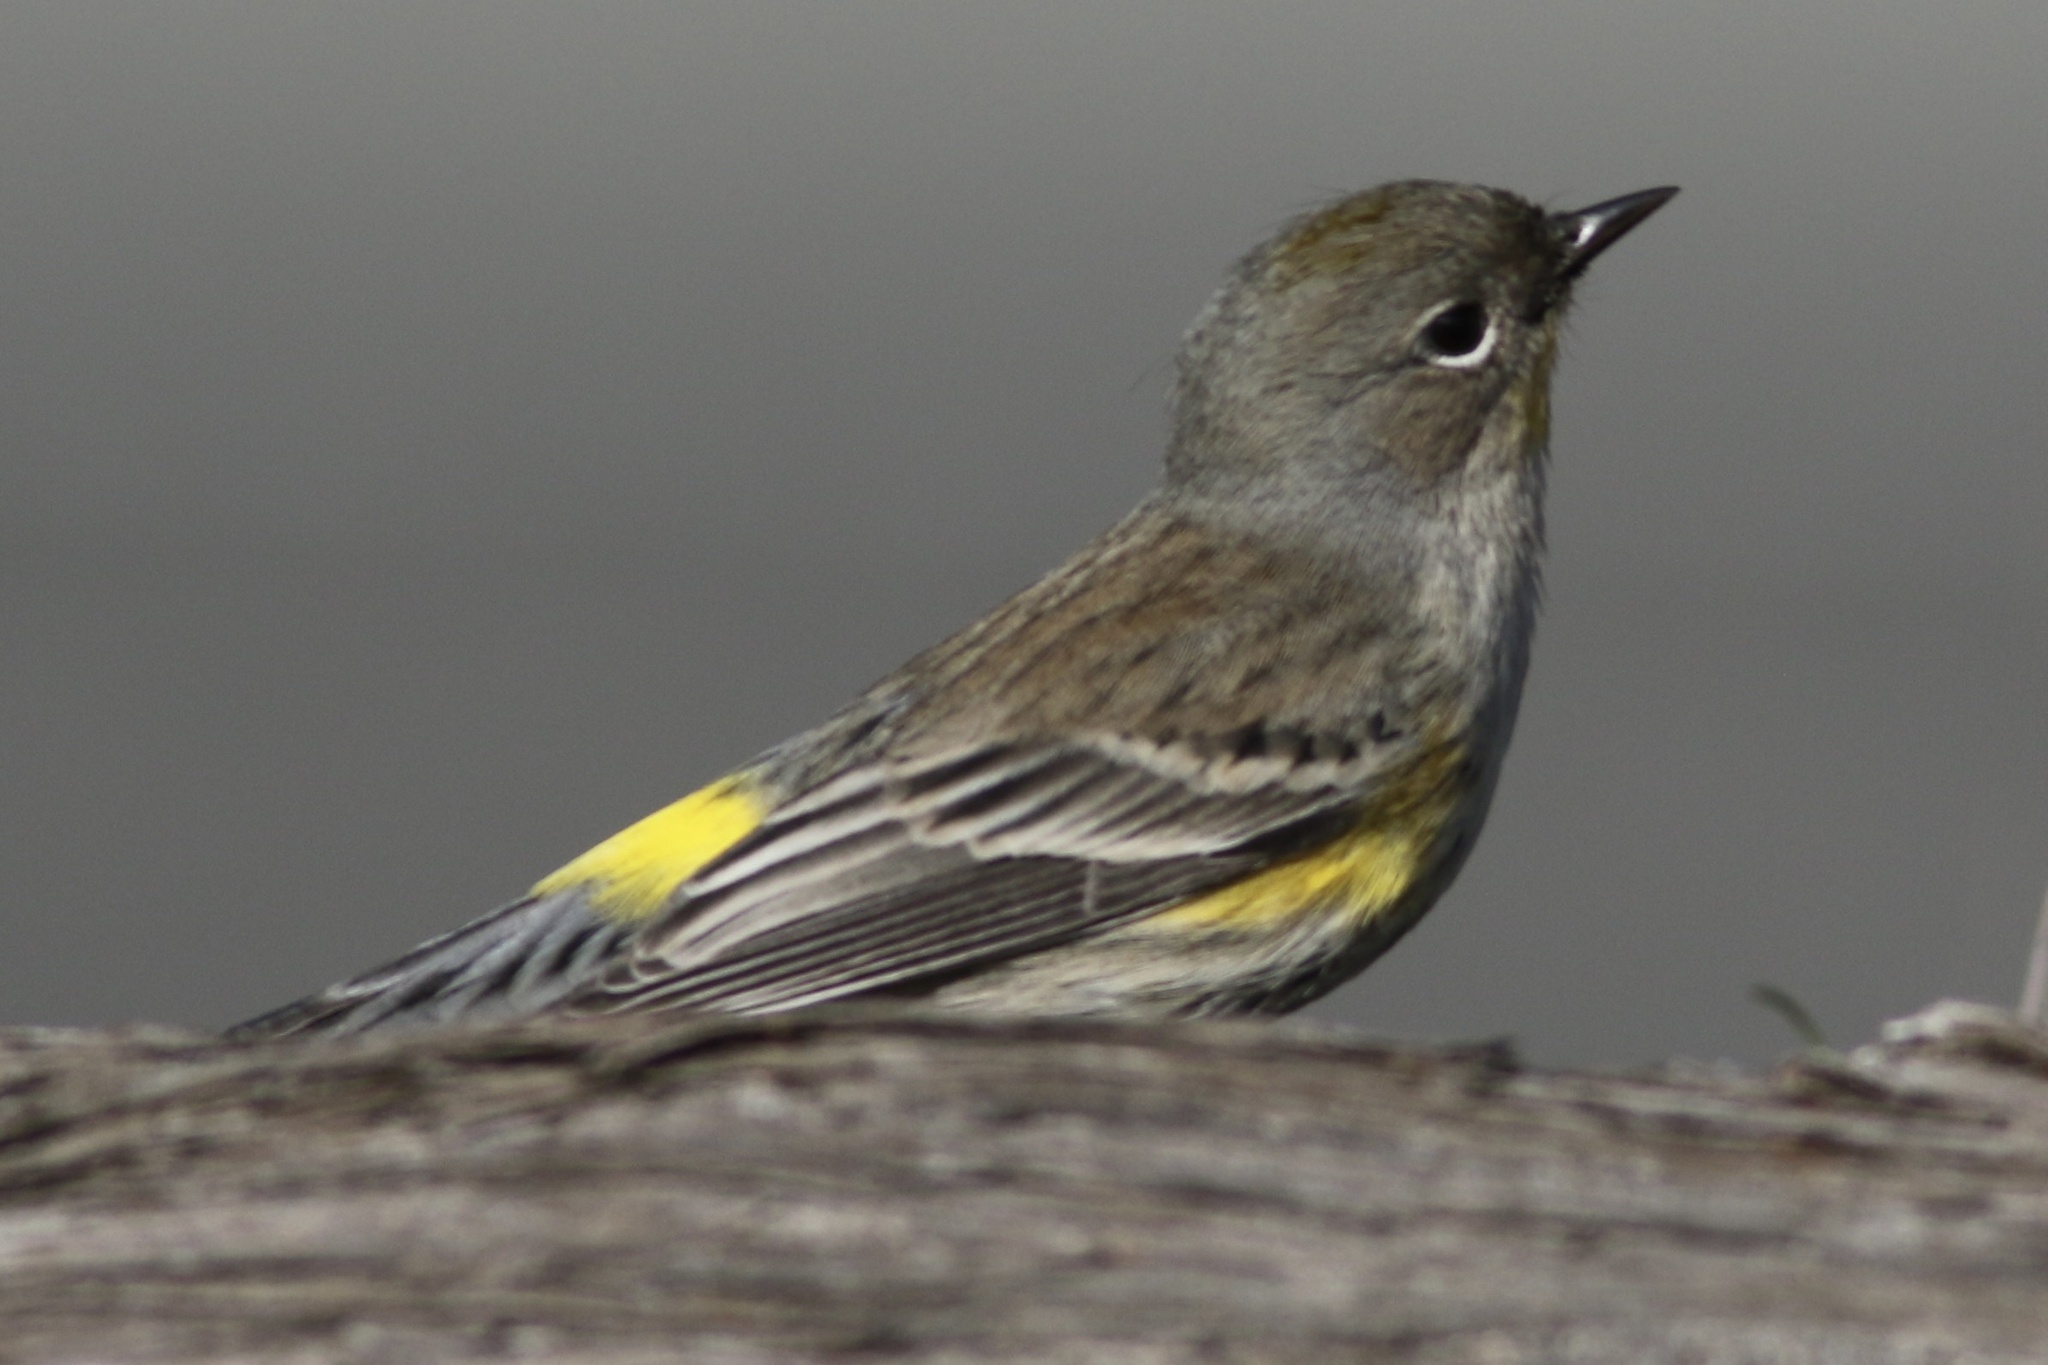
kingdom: Animalia
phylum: Chordata
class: Aves
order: Passeriformes
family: Parulidae
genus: Setophaga
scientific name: Setophaga coronata
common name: Myrtle warbler
